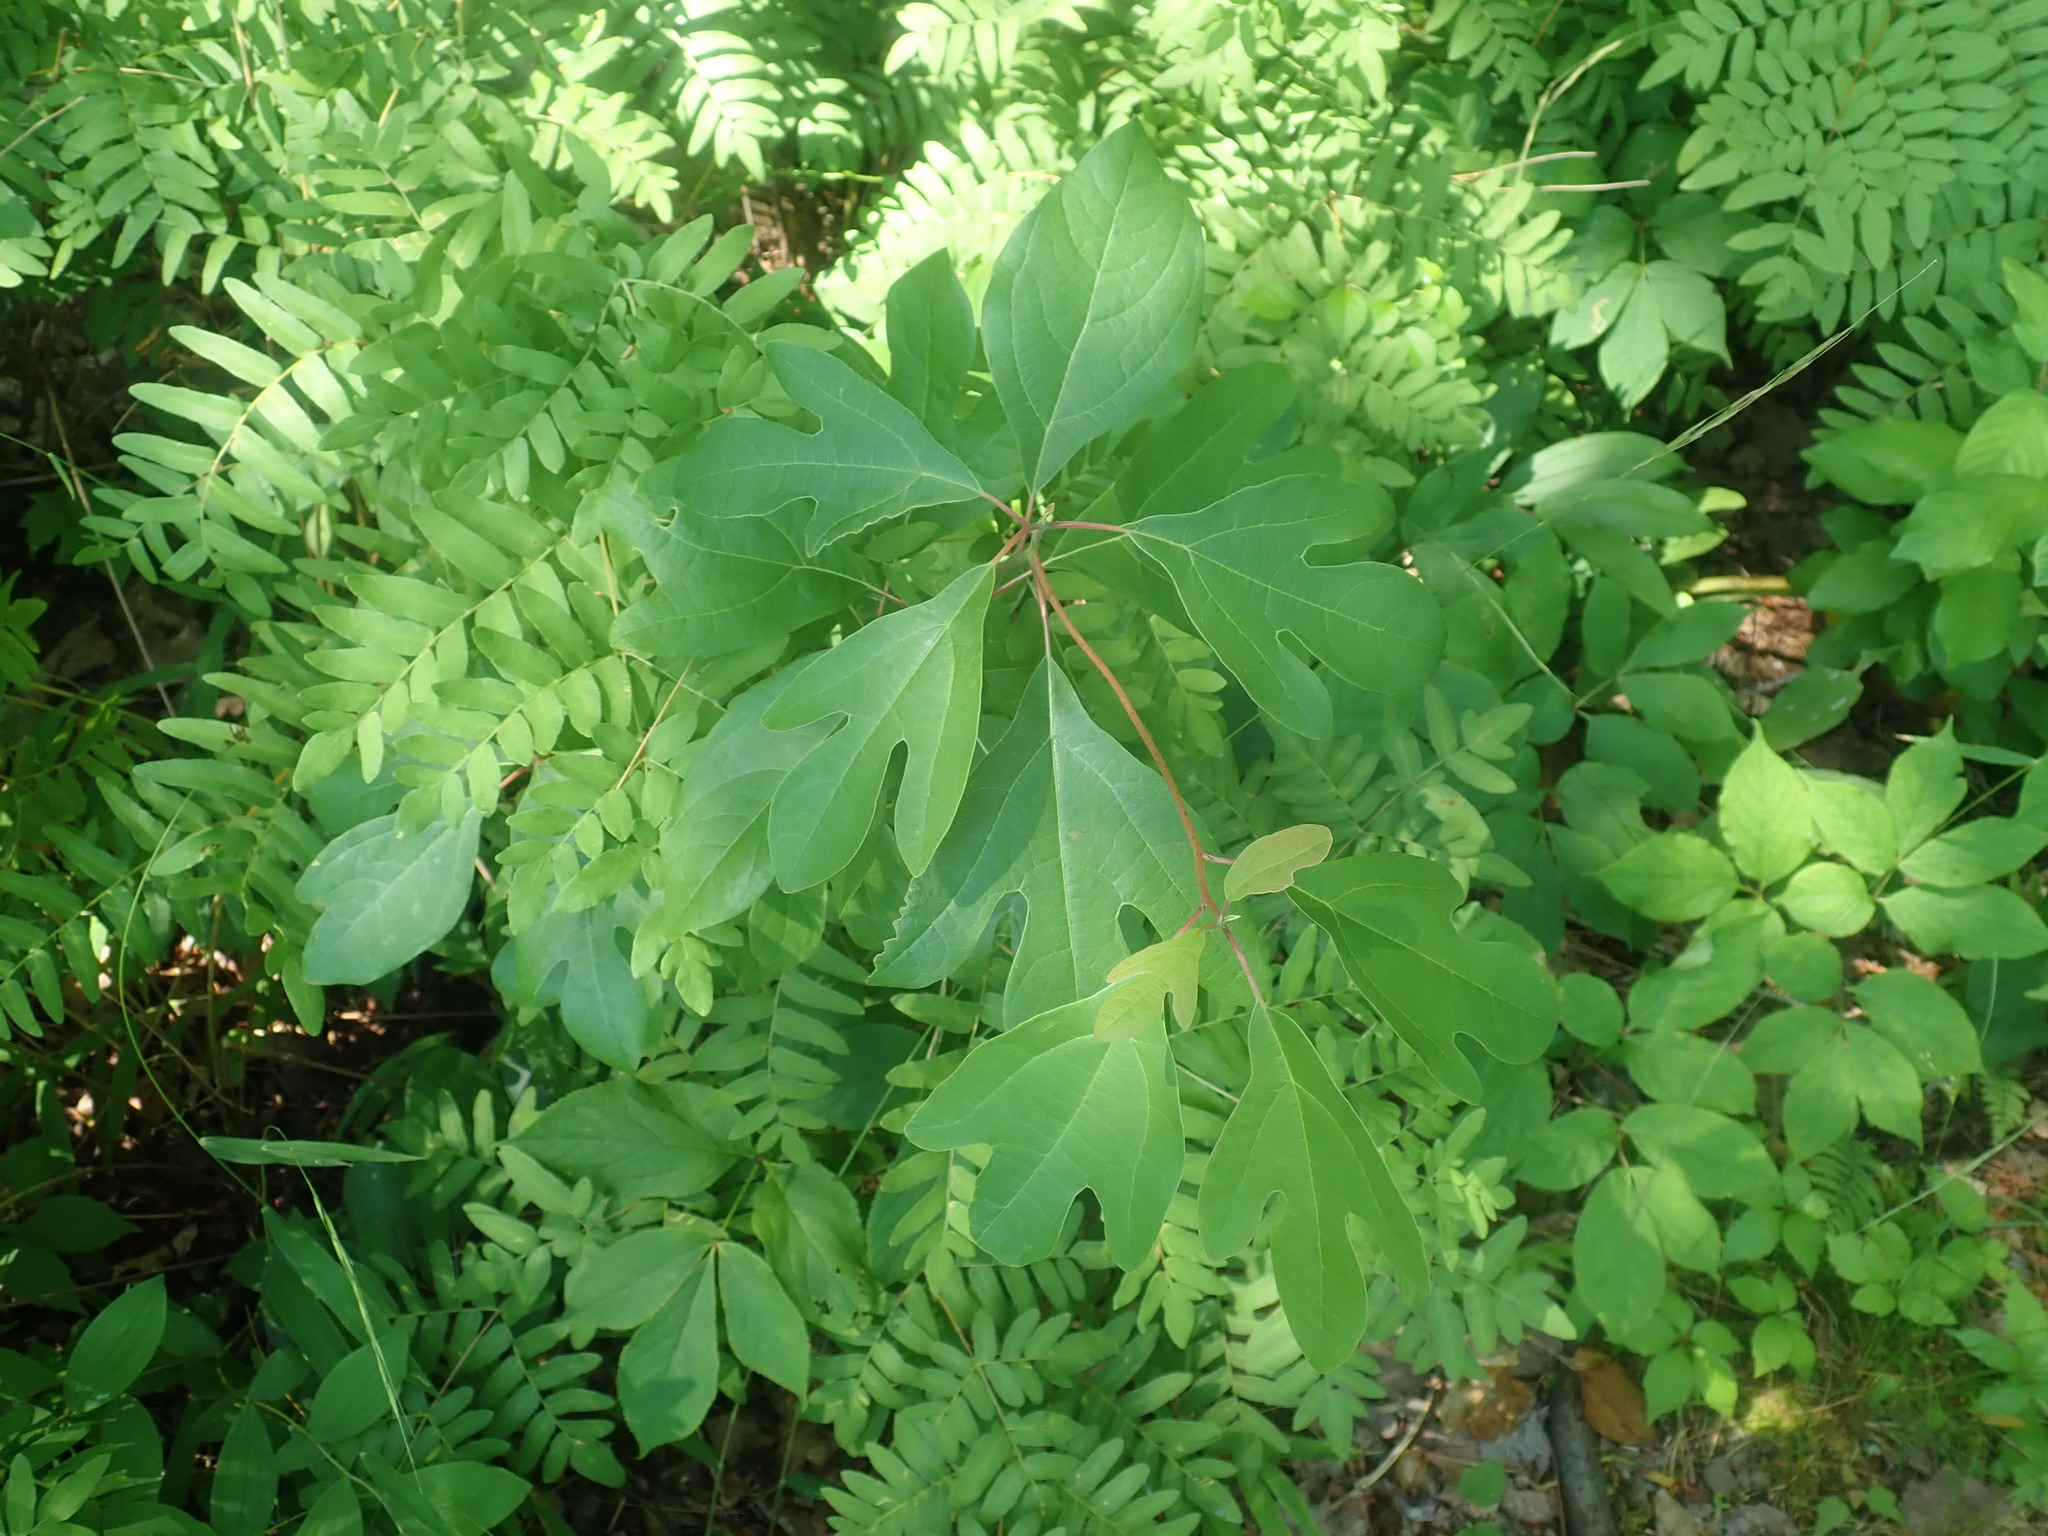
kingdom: Plantae
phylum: Tracheophyta
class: Magnoliopsida
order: Laurales
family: Lauraceae
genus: Sassafras
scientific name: Sassafras albidum
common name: Sassafras
